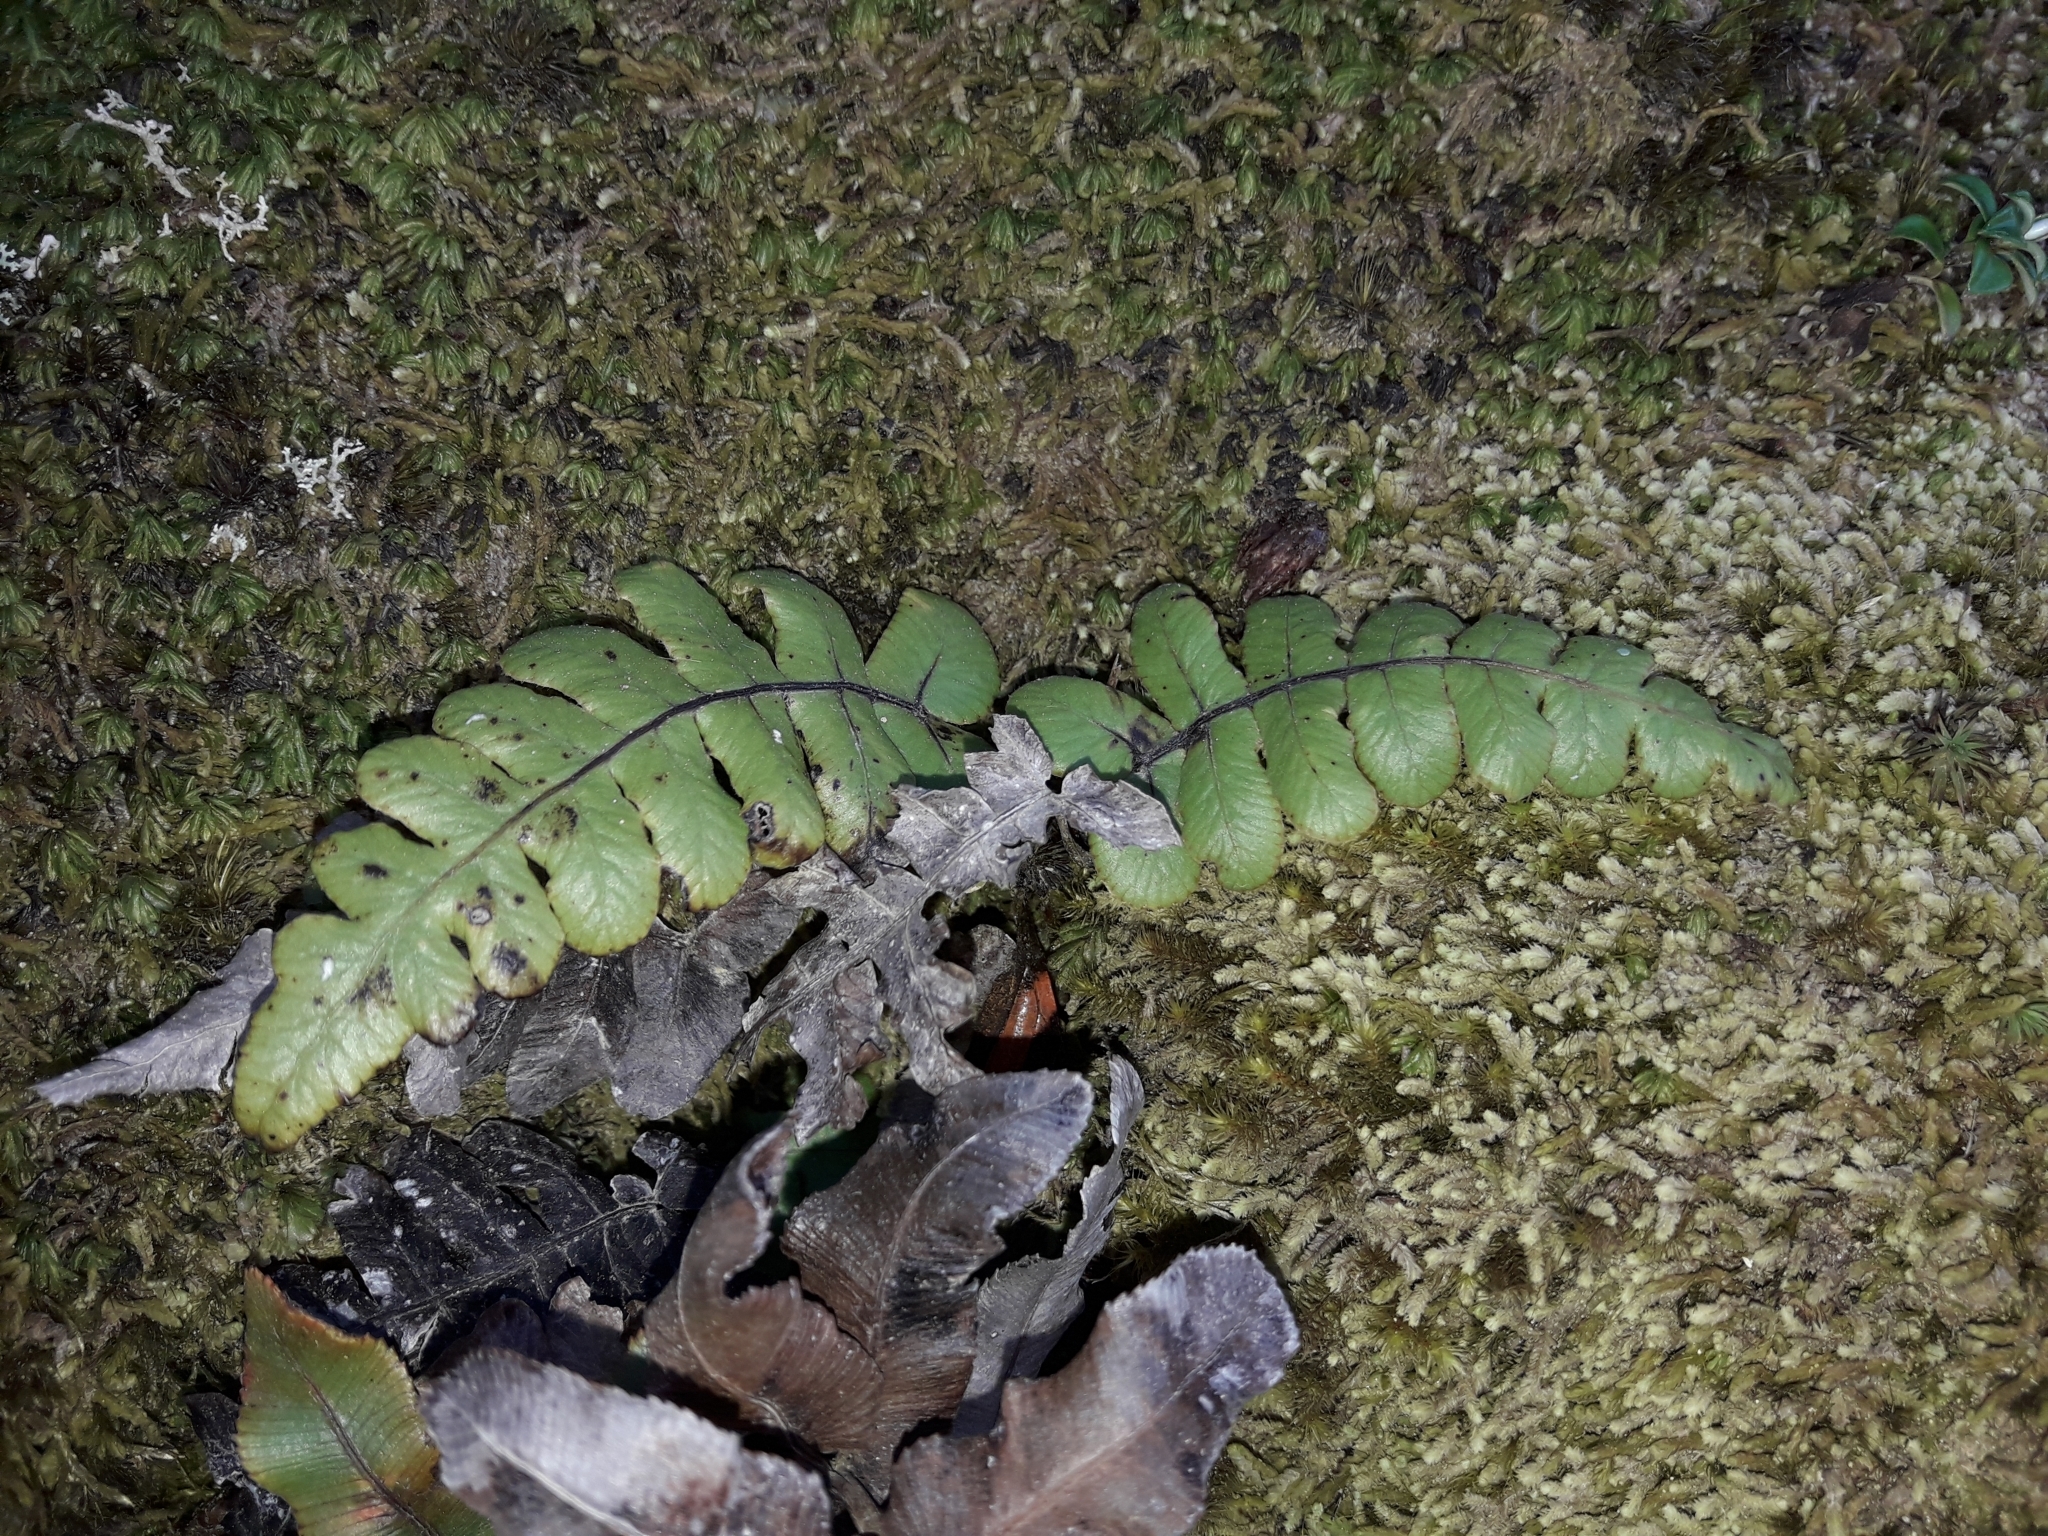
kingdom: Plantae
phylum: Tracheophyta
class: Polypodiopsida
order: Polypodiales
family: Blechnaceae
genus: Cranfillia
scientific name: Cranfillia deltoides
